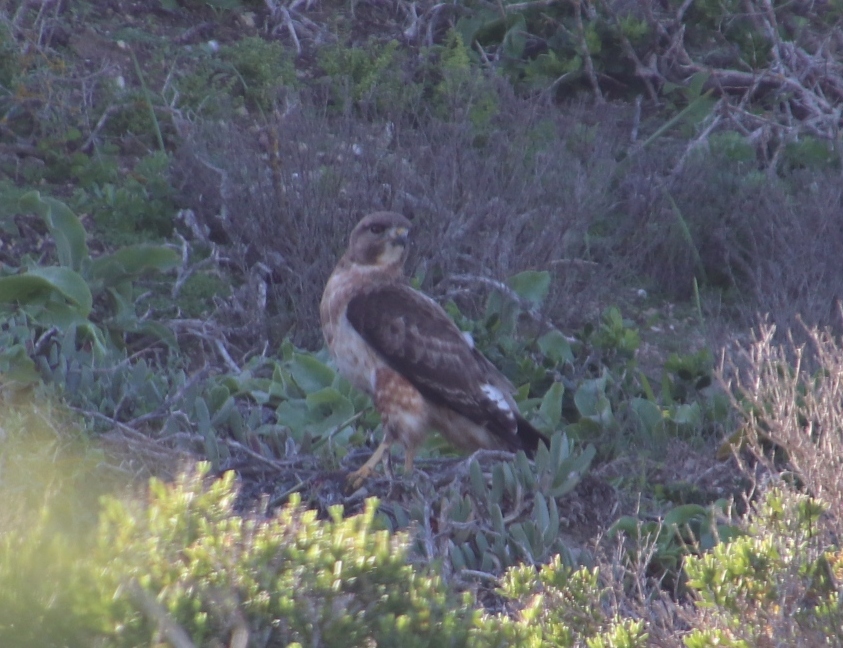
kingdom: Animalia
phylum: Chordata
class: Aves
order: Accipitriformes
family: Accipitridae
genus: Buteo
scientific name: Buteo rufofuscus
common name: Jackal buzzard
